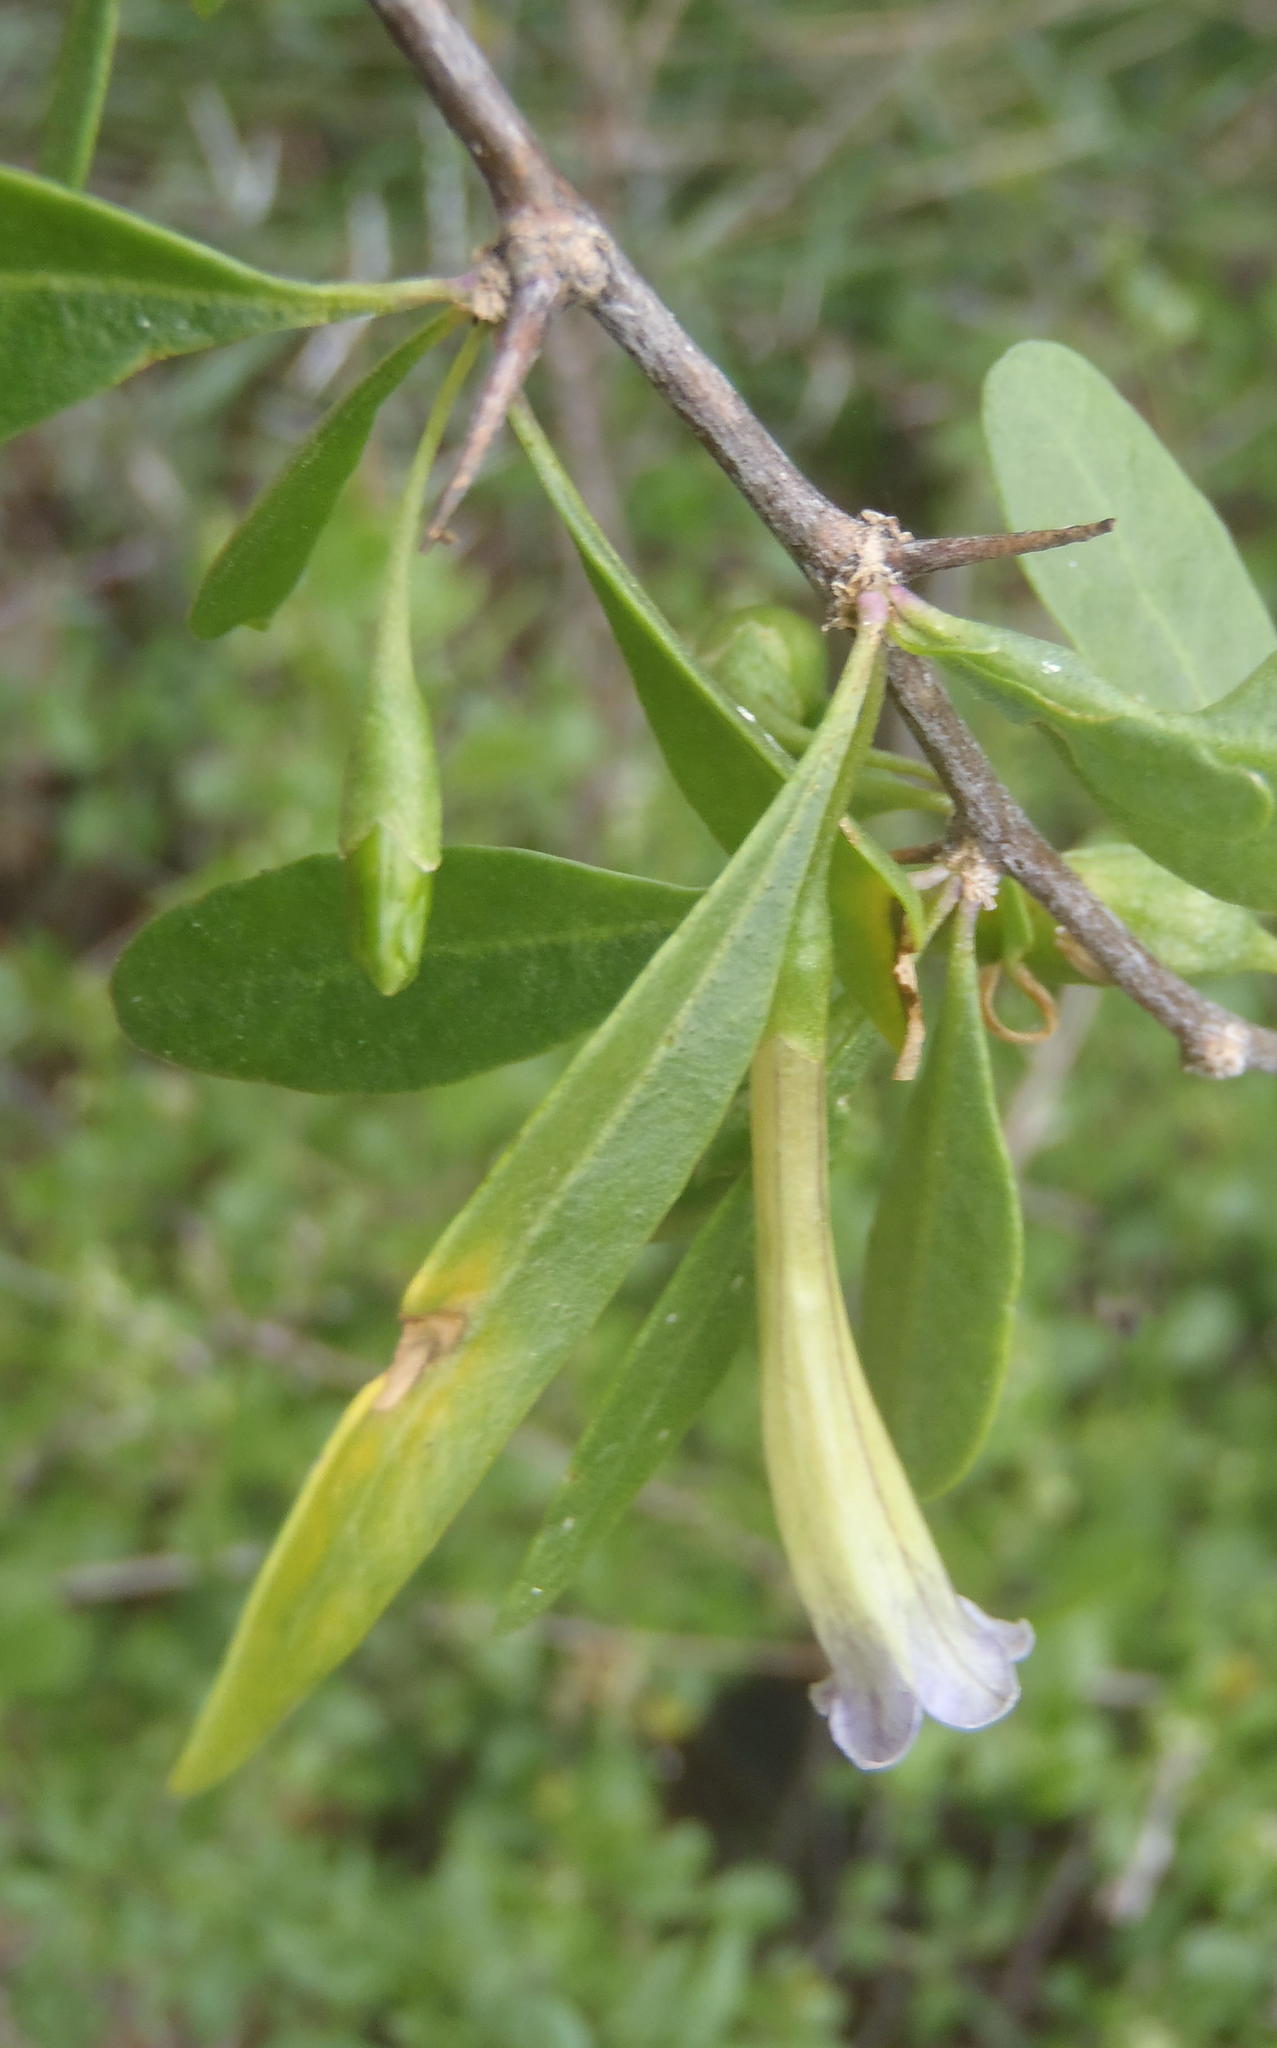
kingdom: Plantae
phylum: Tracheophyta
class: Magnoliopsida
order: Solanales
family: Solanaceae
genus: Lycium
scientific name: Lycium oxycarpum
